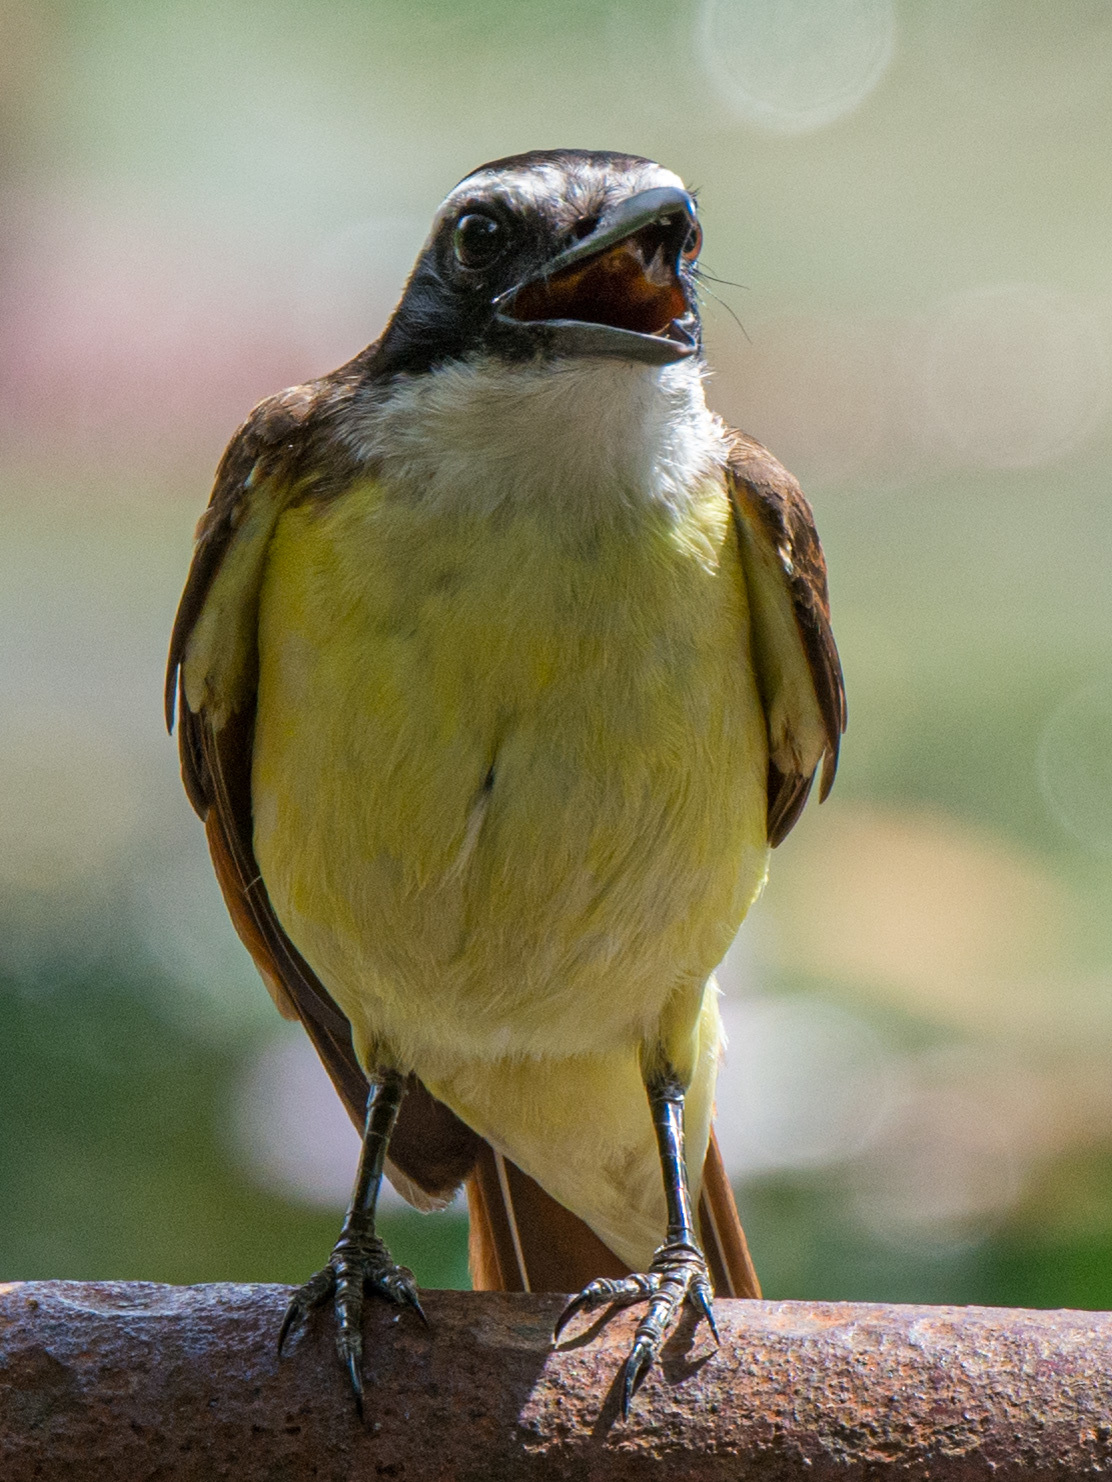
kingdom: Animalia
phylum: Chordata
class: Aves
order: Passeriformes
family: Tyrannidae
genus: Pitangus
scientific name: Pitangus sulphuratus
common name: Great kiskadee
